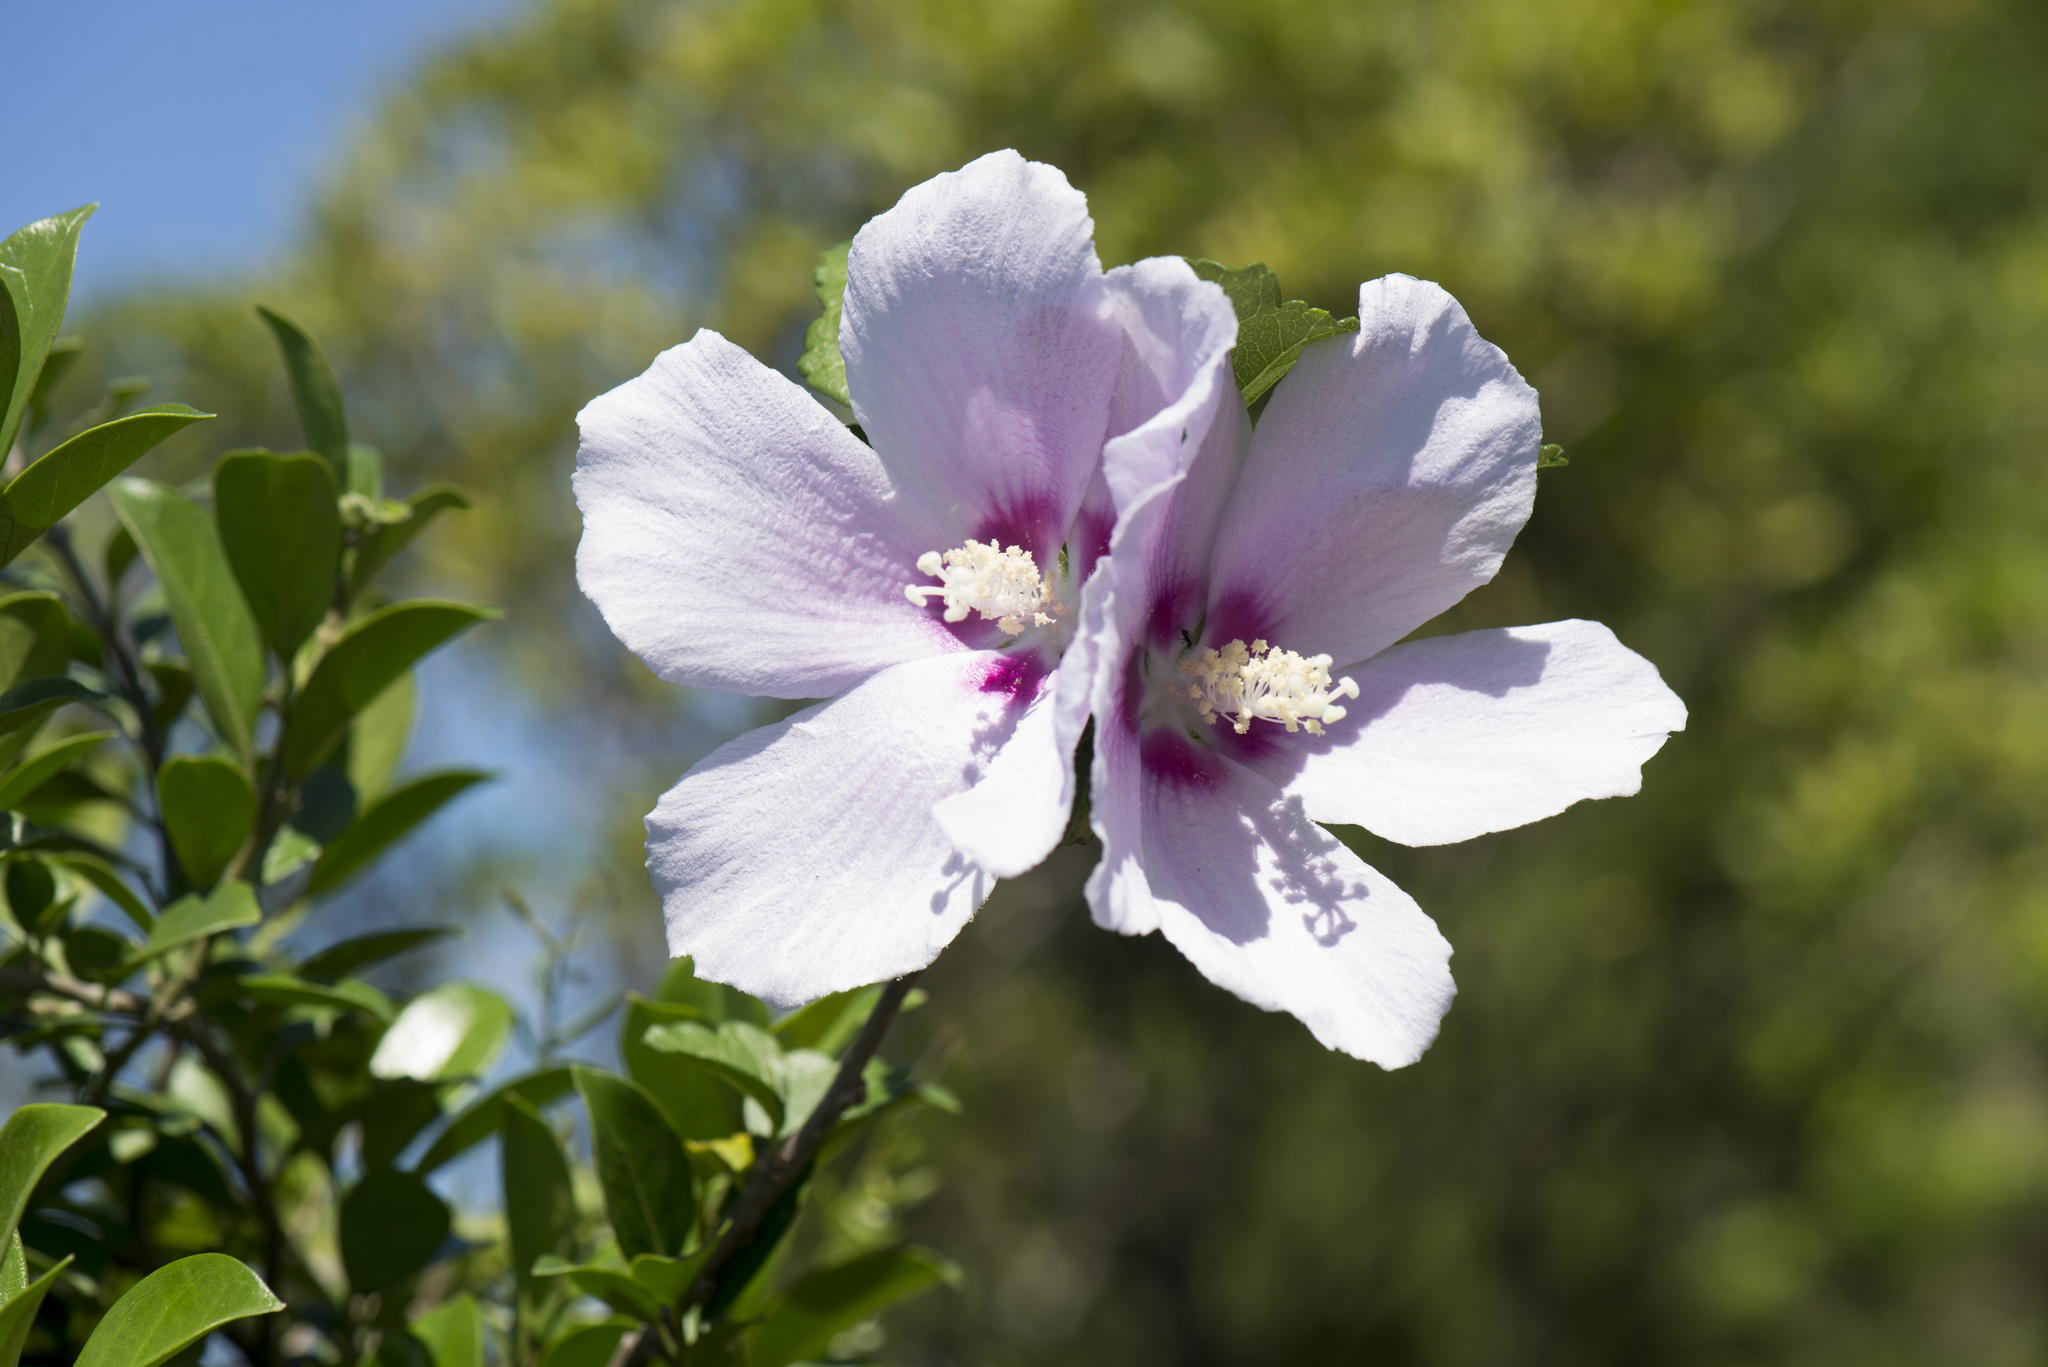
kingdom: Plantae
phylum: Tracheophyta
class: Magnoliopsida
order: Malvales
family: Malvaceae
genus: Hibiscus
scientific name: Hibiscus syriacus
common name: Syrian ketmia
